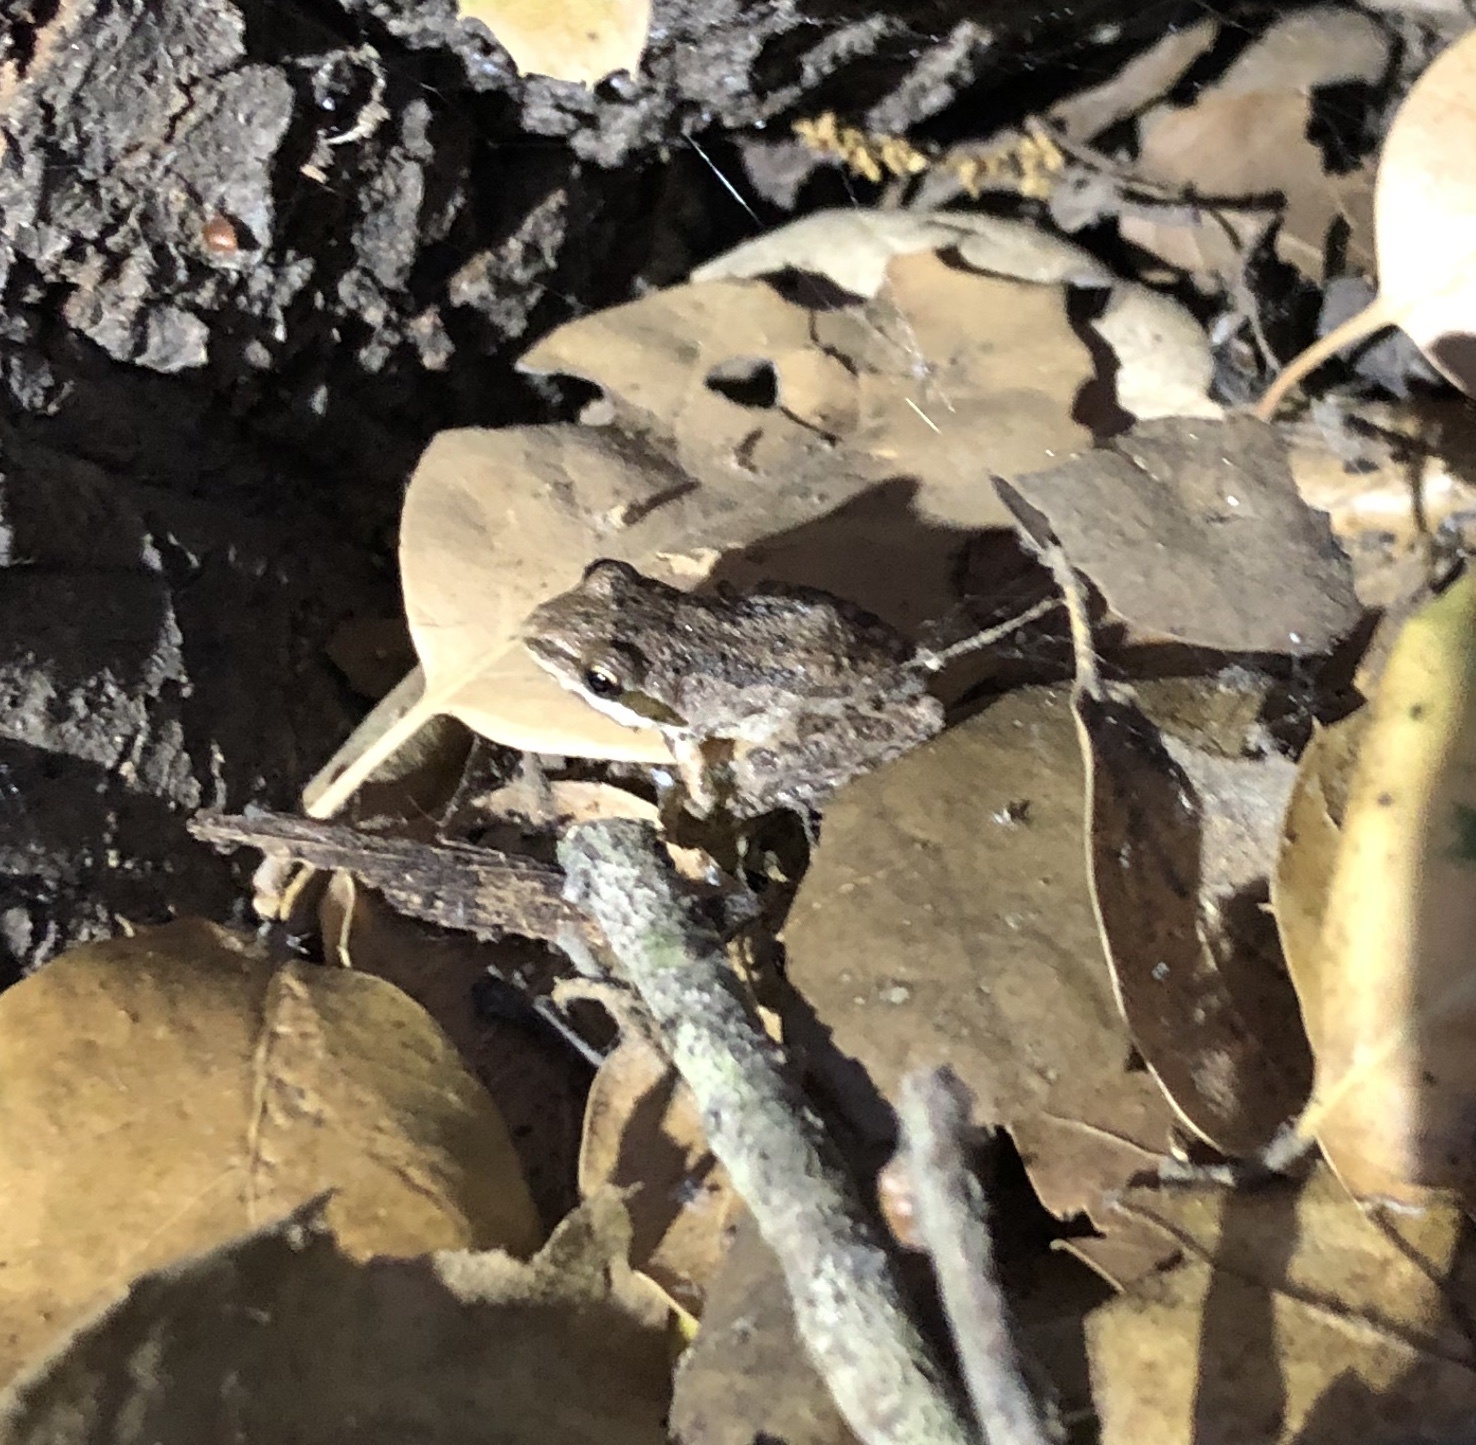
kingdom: Animalia
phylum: Chordata
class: Amphibia
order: Anura
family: Hylidae
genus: Pseudacris
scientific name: Pseudacris regilla
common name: Pacific chorus frog
